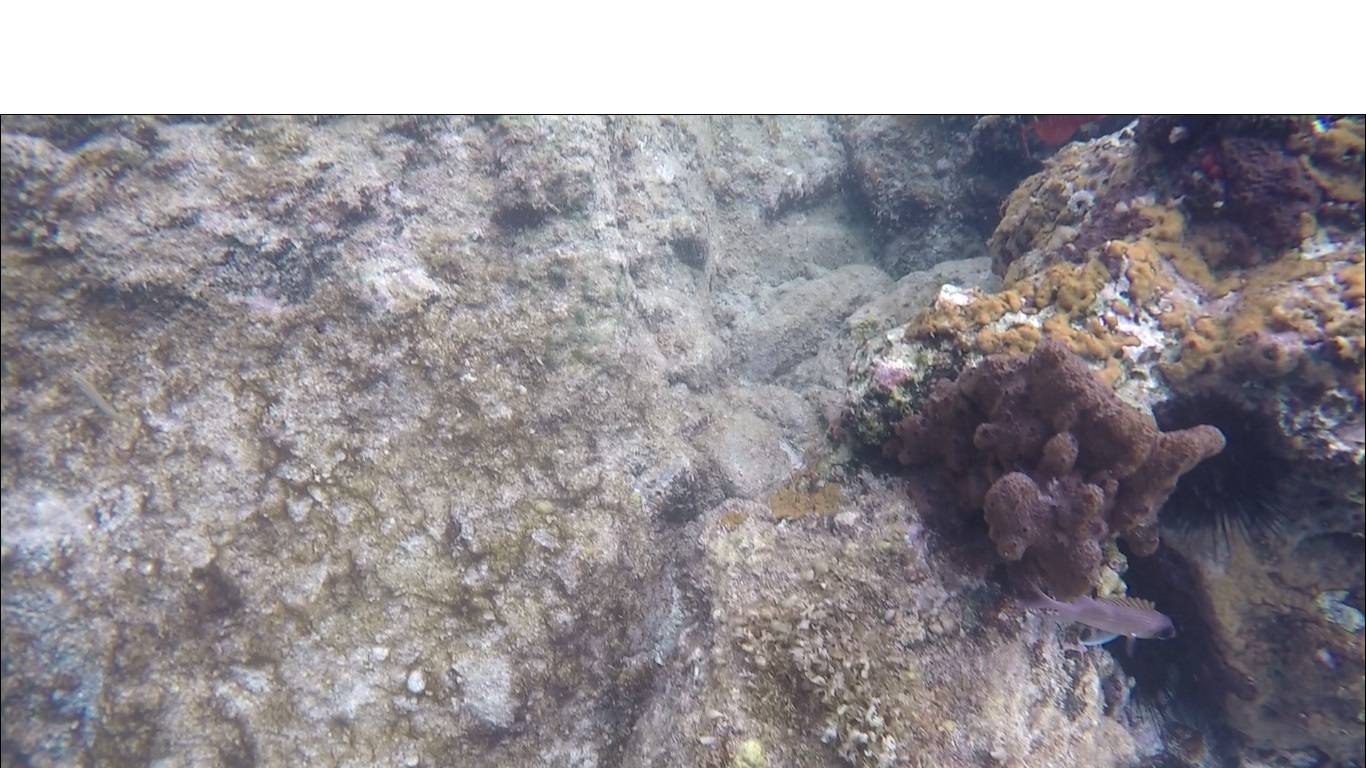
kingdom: Animalia
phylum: Chordata
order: Beryciformes
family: Holocentridae
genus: Holocentrus
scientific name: Holocentrus
